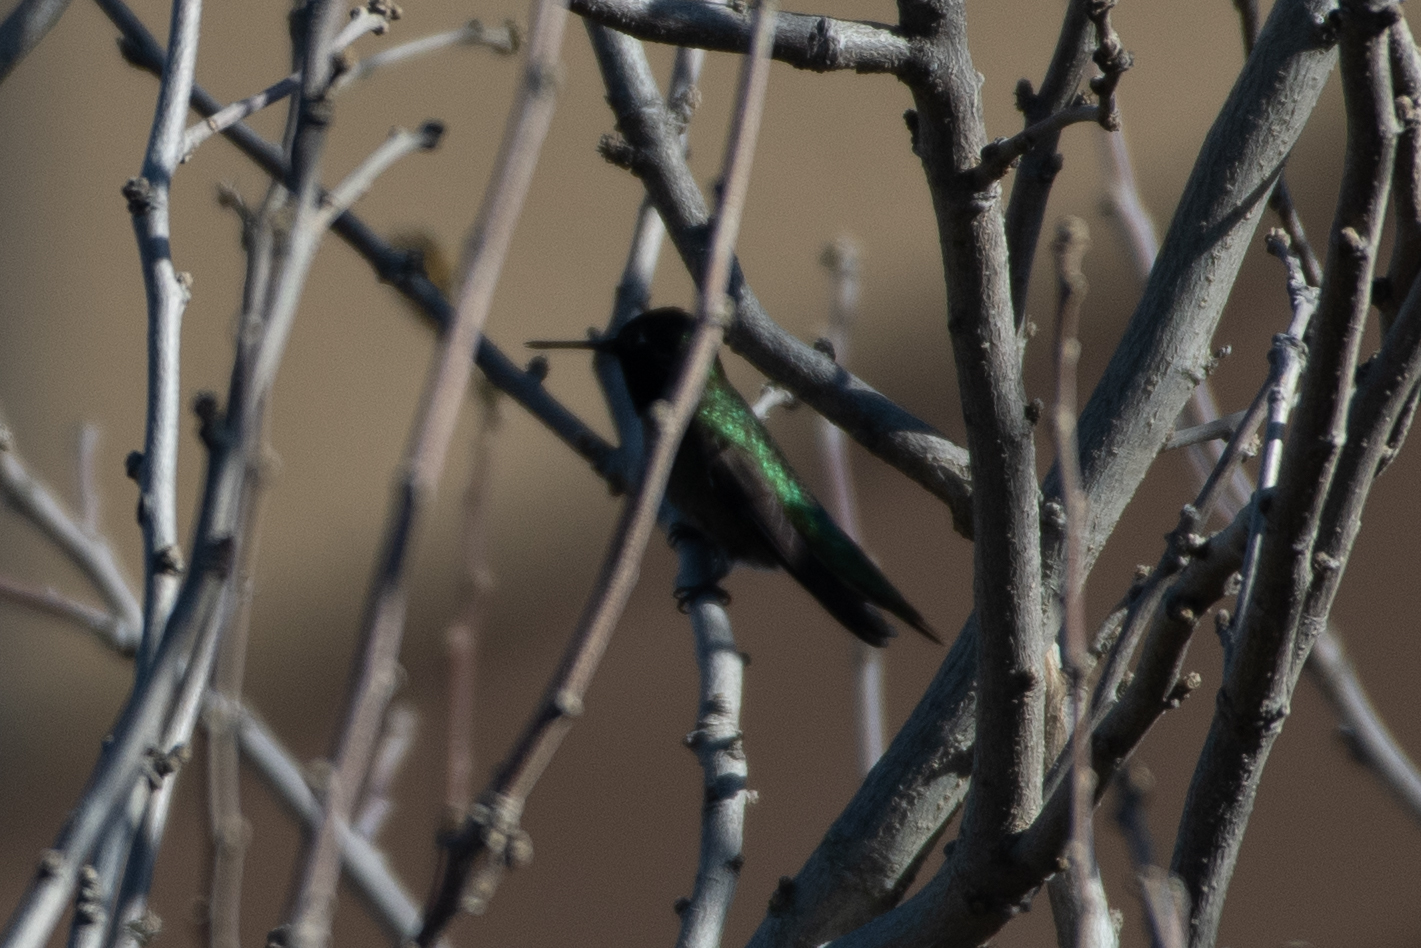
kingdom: Animalia
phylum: Chordata
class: Aves
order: Apodiformes
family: Trochilidae
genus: Calypte
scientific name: Calypte anna
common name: Anna's hummingbird
